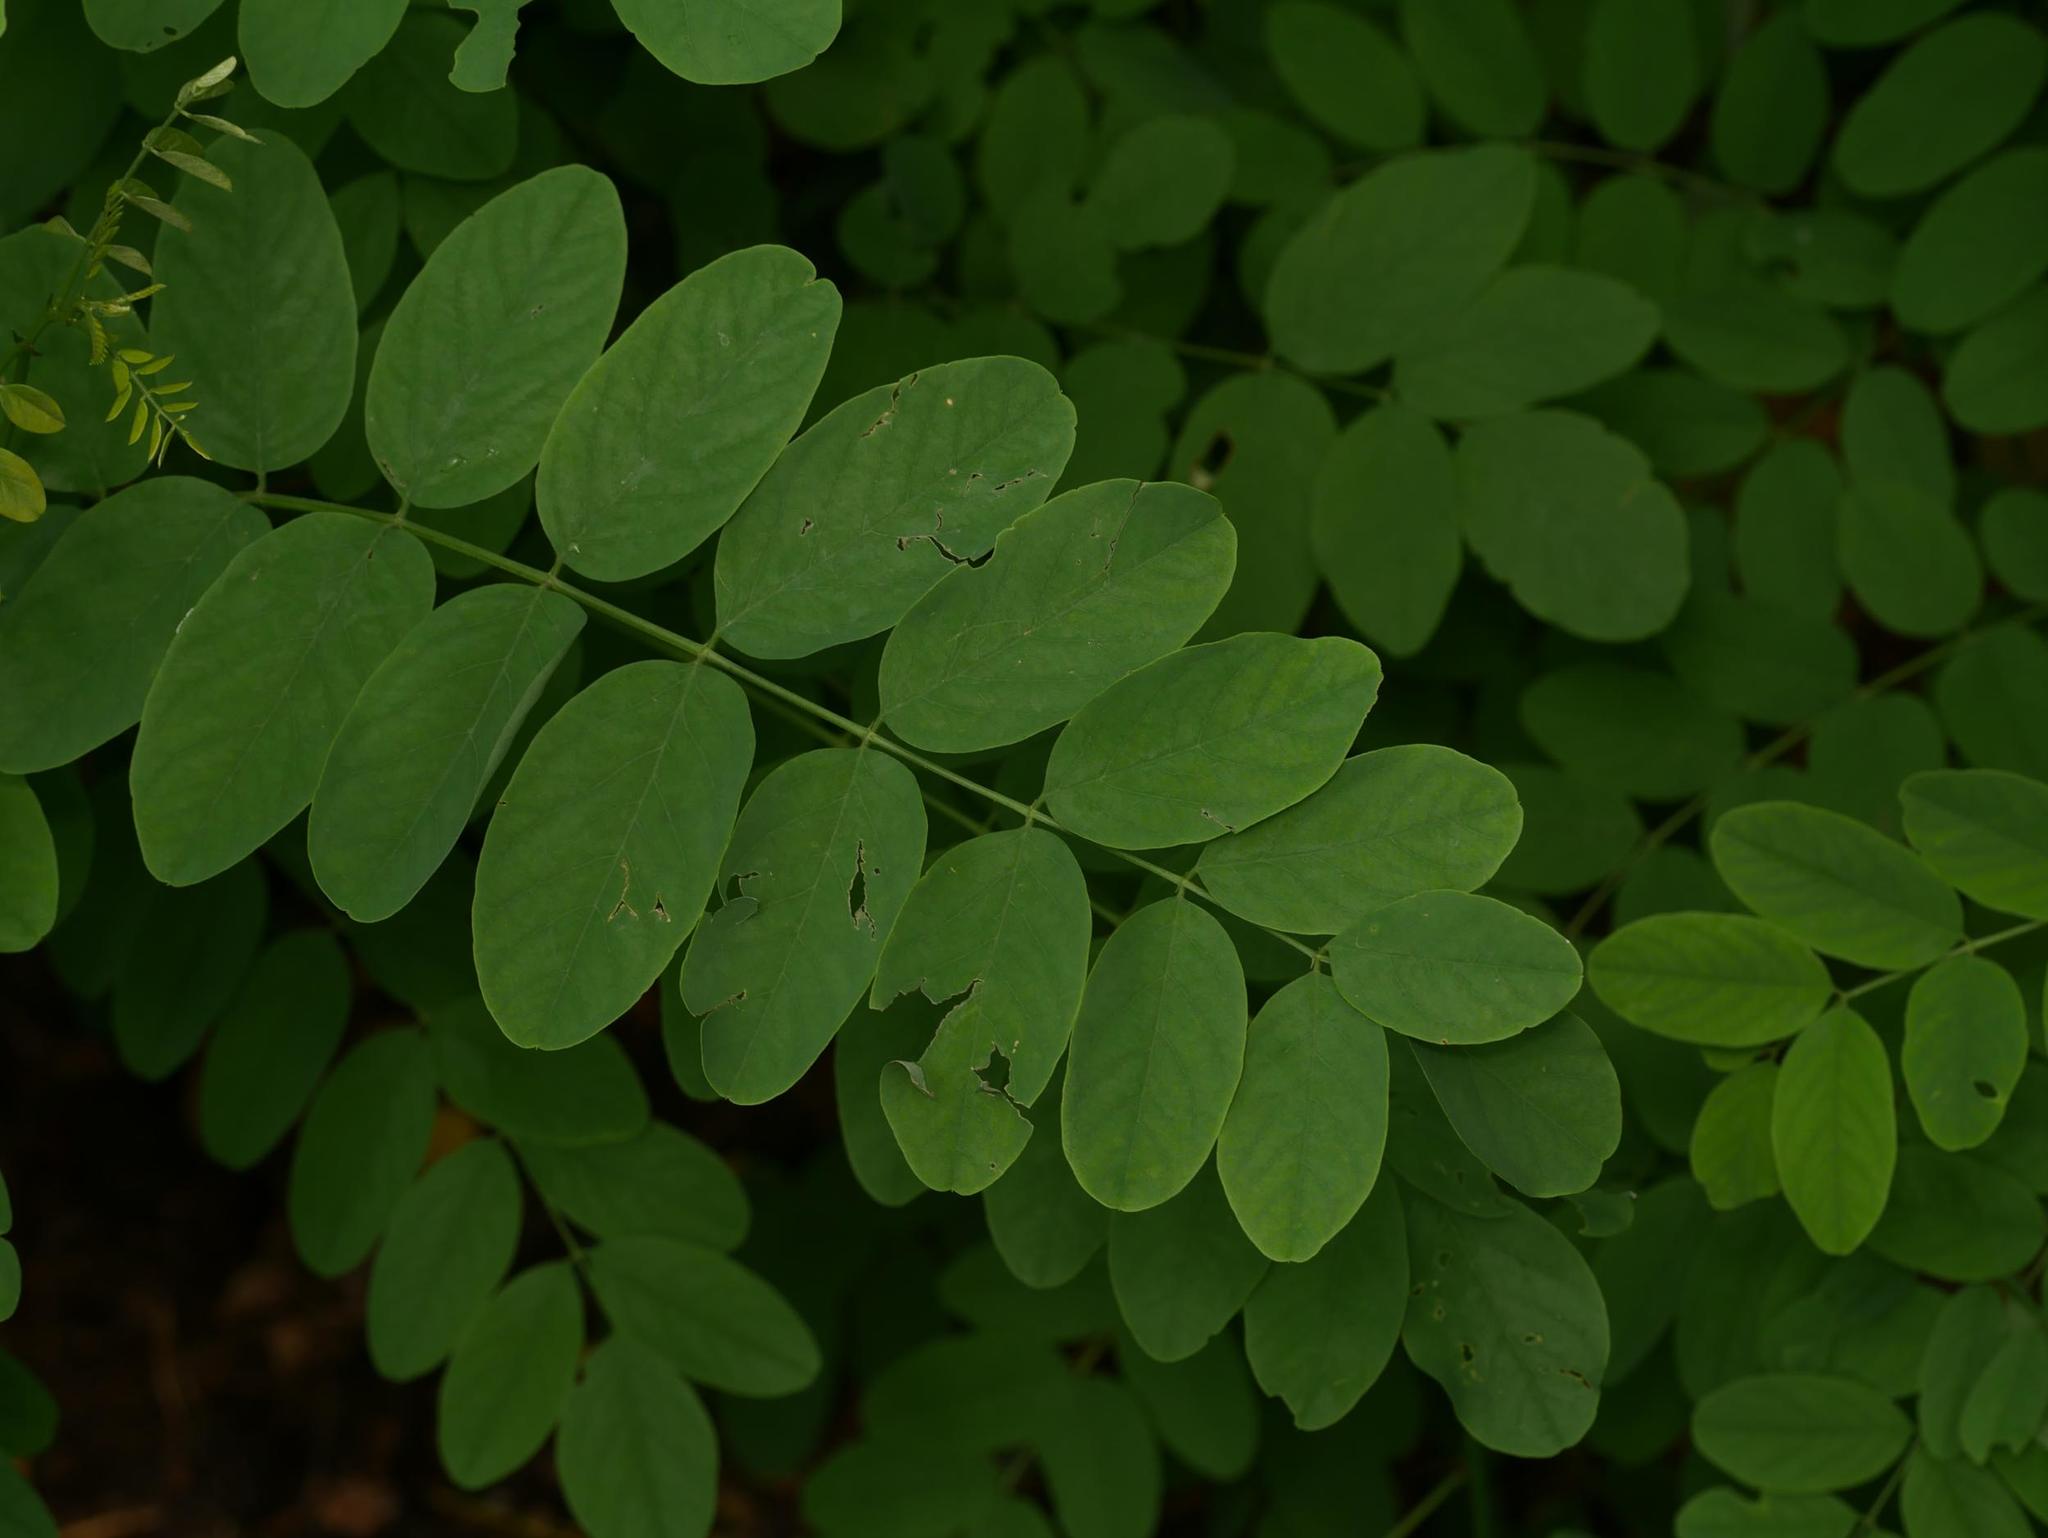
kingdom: Plantae
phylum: Tracheophyta
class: Magnoliopsida
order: Fabales
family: Fabaceae
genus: Robinia
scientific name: Robinia pseudoacacia
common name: Black locust
